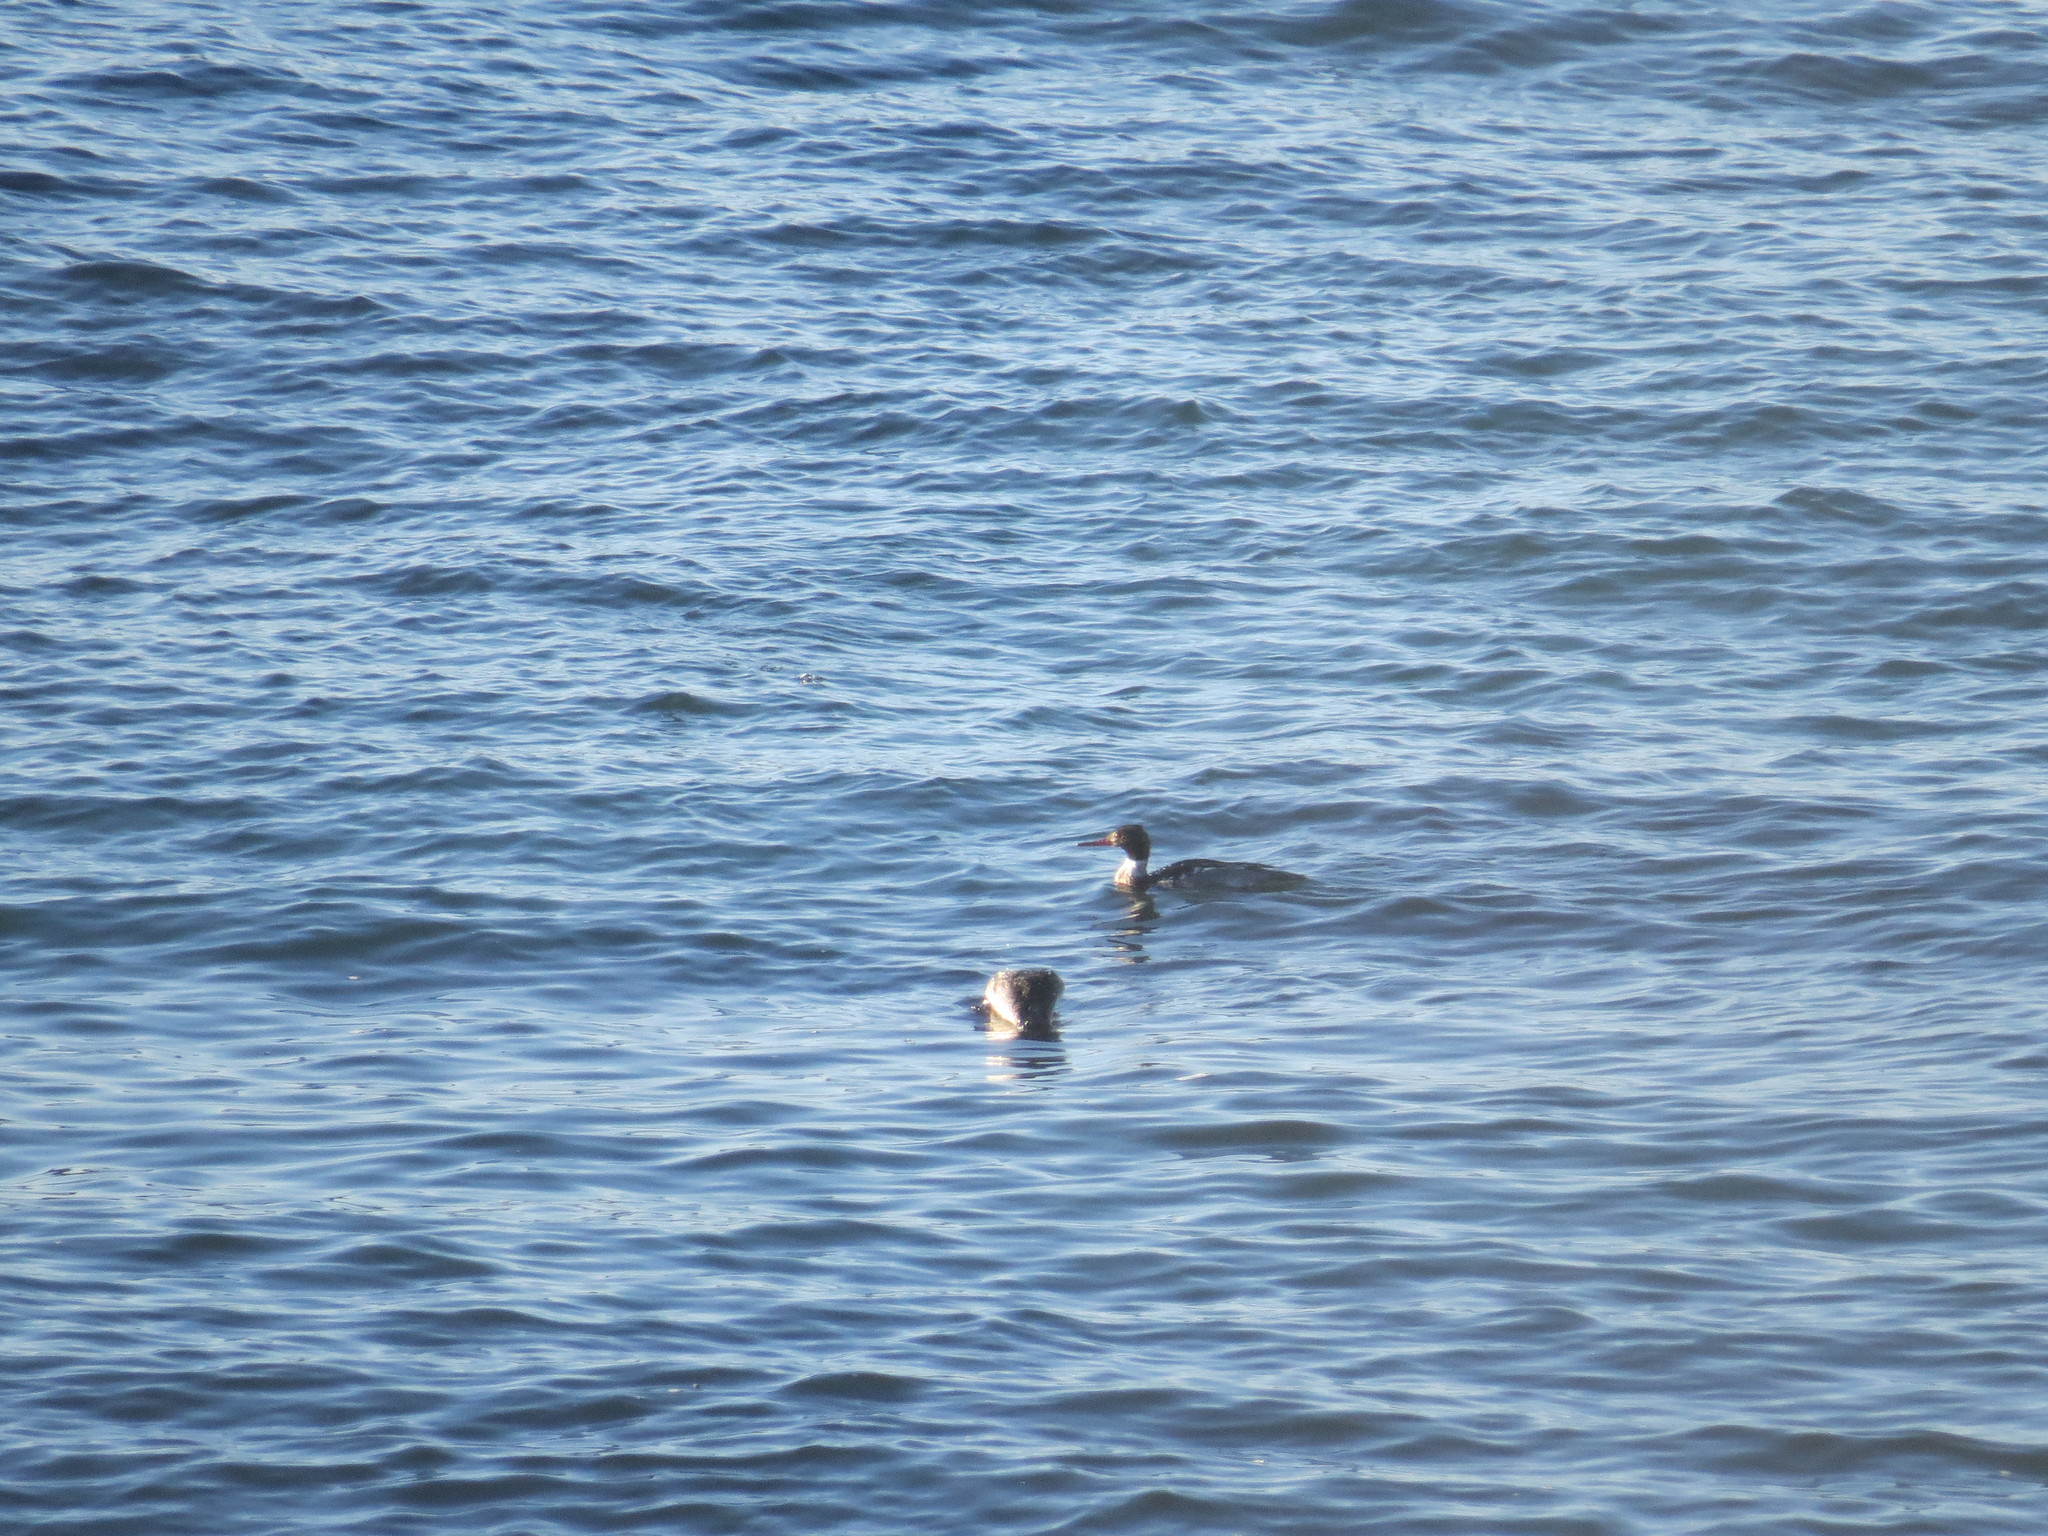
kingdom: Animalia
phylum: Chordata
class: Aves
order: Anseriformes
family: Anatidae
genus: Mergus
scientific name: Mergus serrator
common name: Red-breasted merganser
